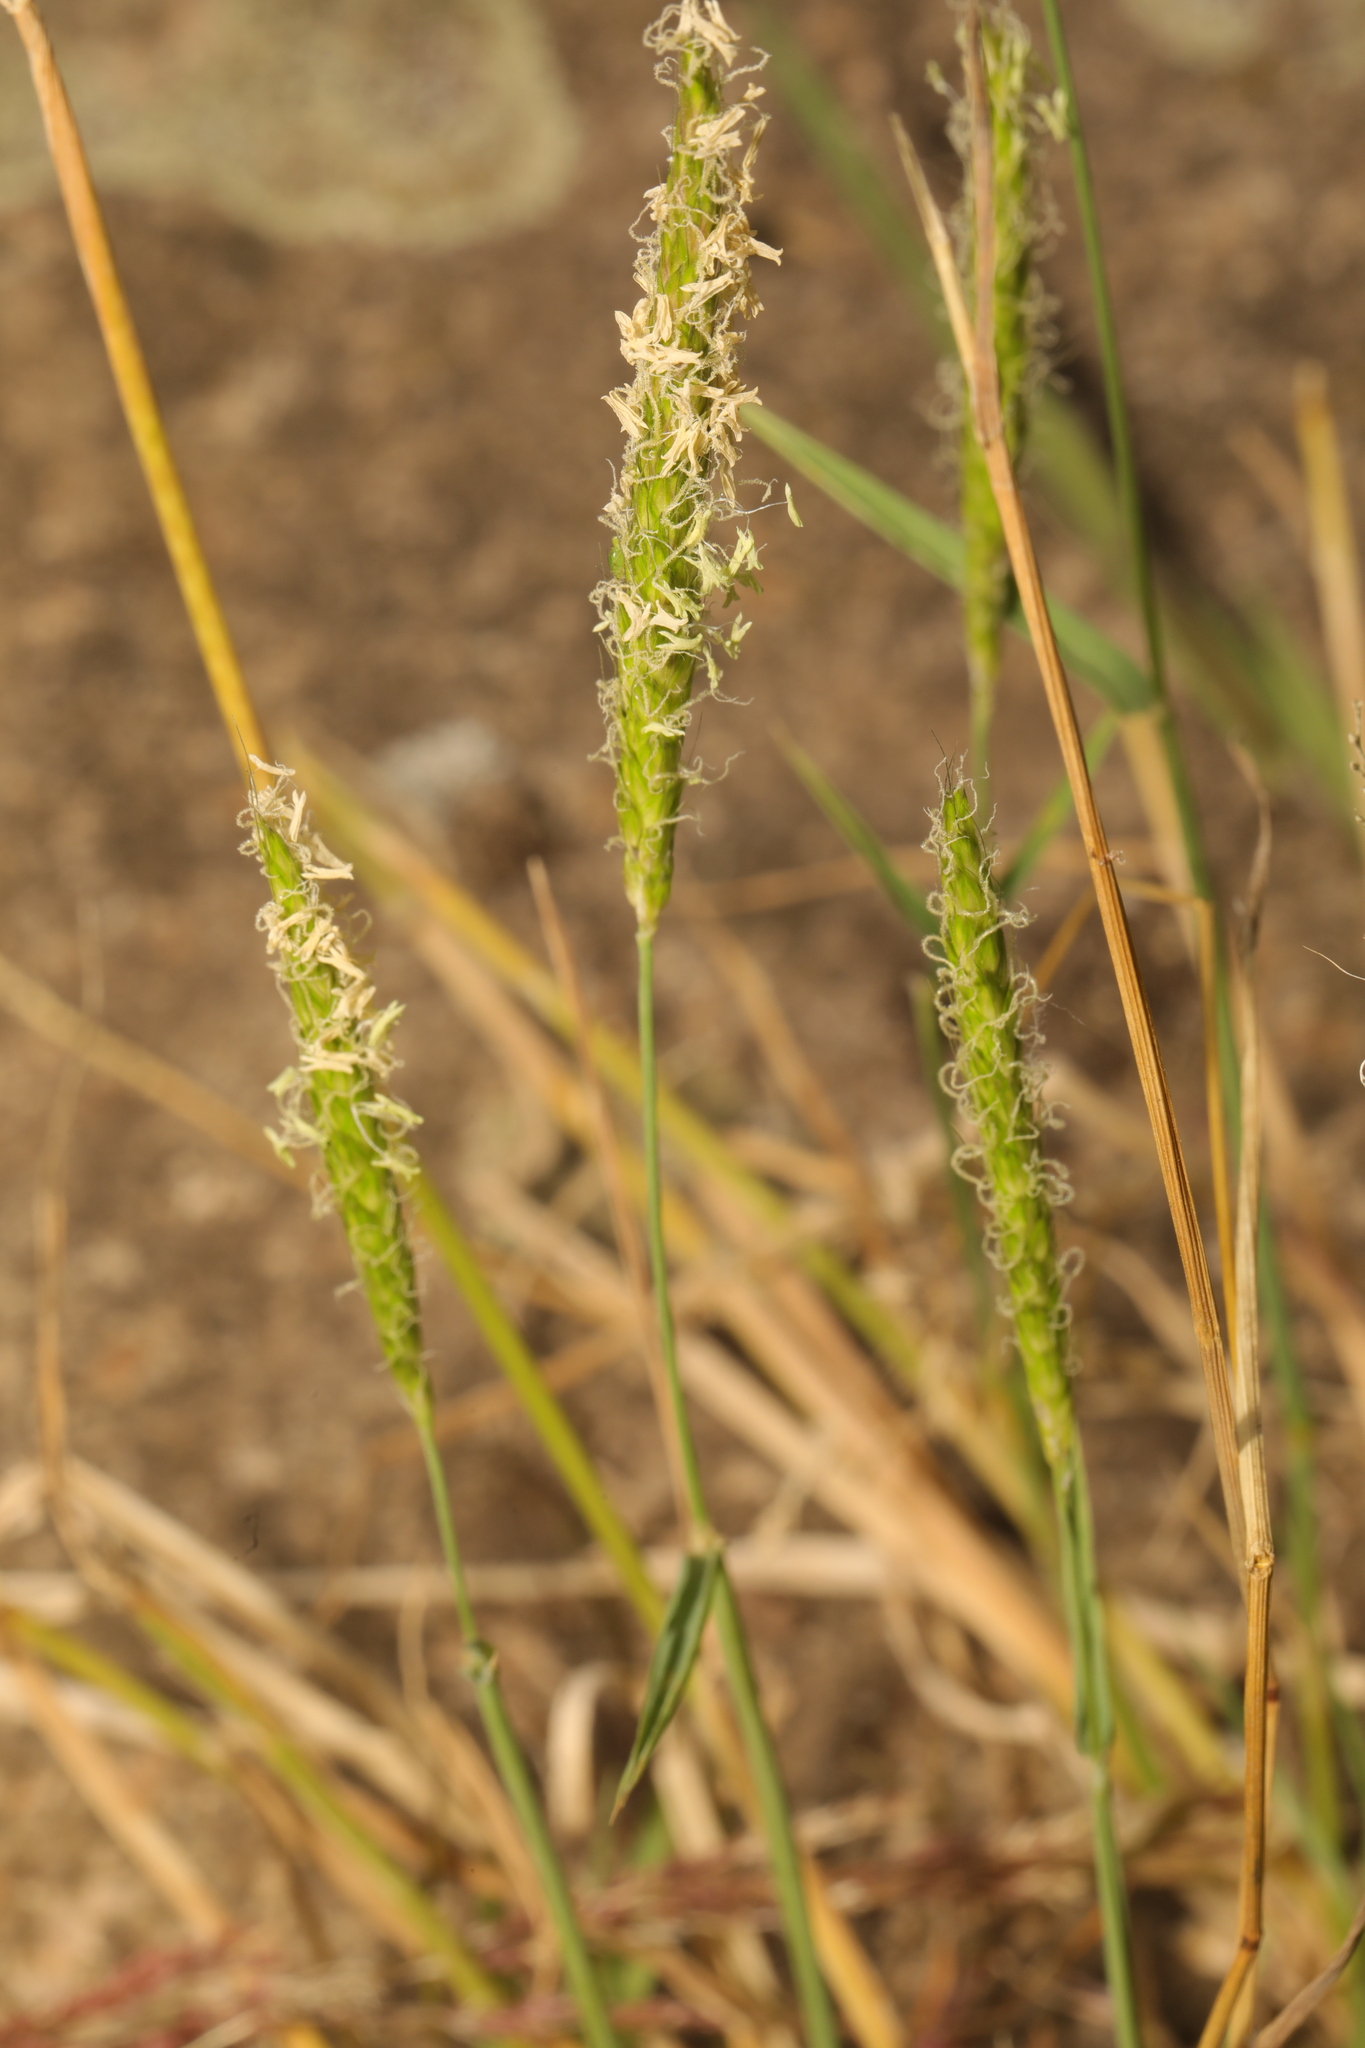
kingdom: Plantae
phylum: Tracheophyta
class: Liliopsida
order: Poales
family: Poaceae
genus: Alopecurus
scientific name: Alopecurus myosuroides
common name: Black-grass
